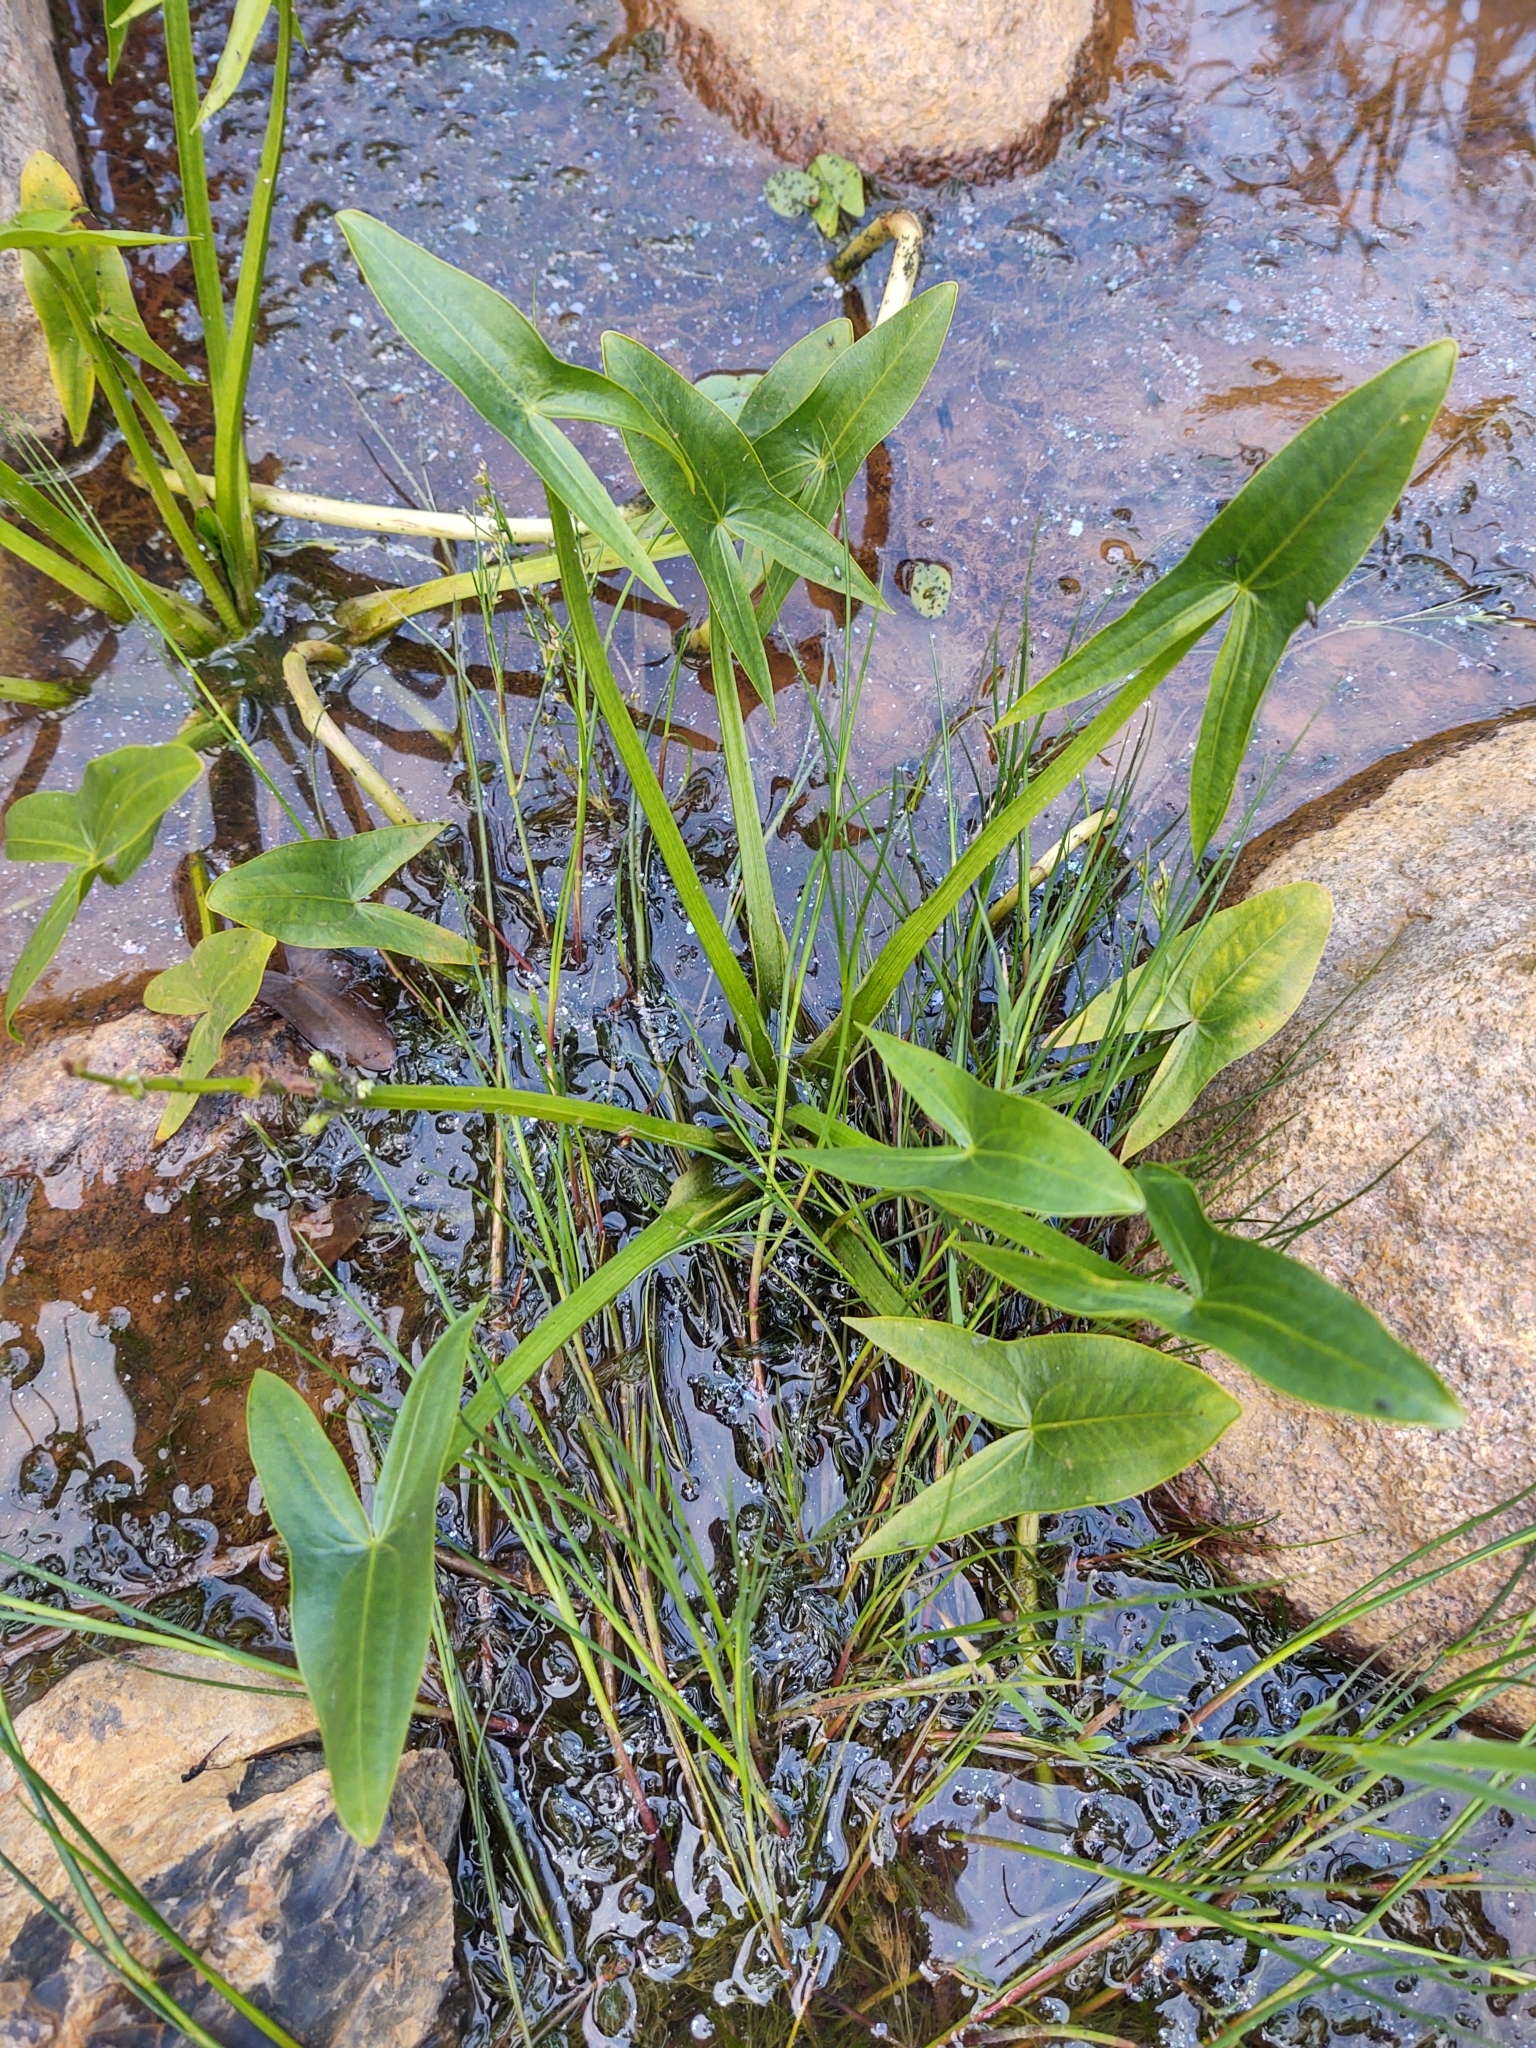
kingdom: Plantae
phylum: Tracheophyta
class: Liliopsida
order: Alismatales
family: Alismataceae
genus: Sagittaria
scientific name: Sagittaria sagittifolia
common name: Arrowhead
